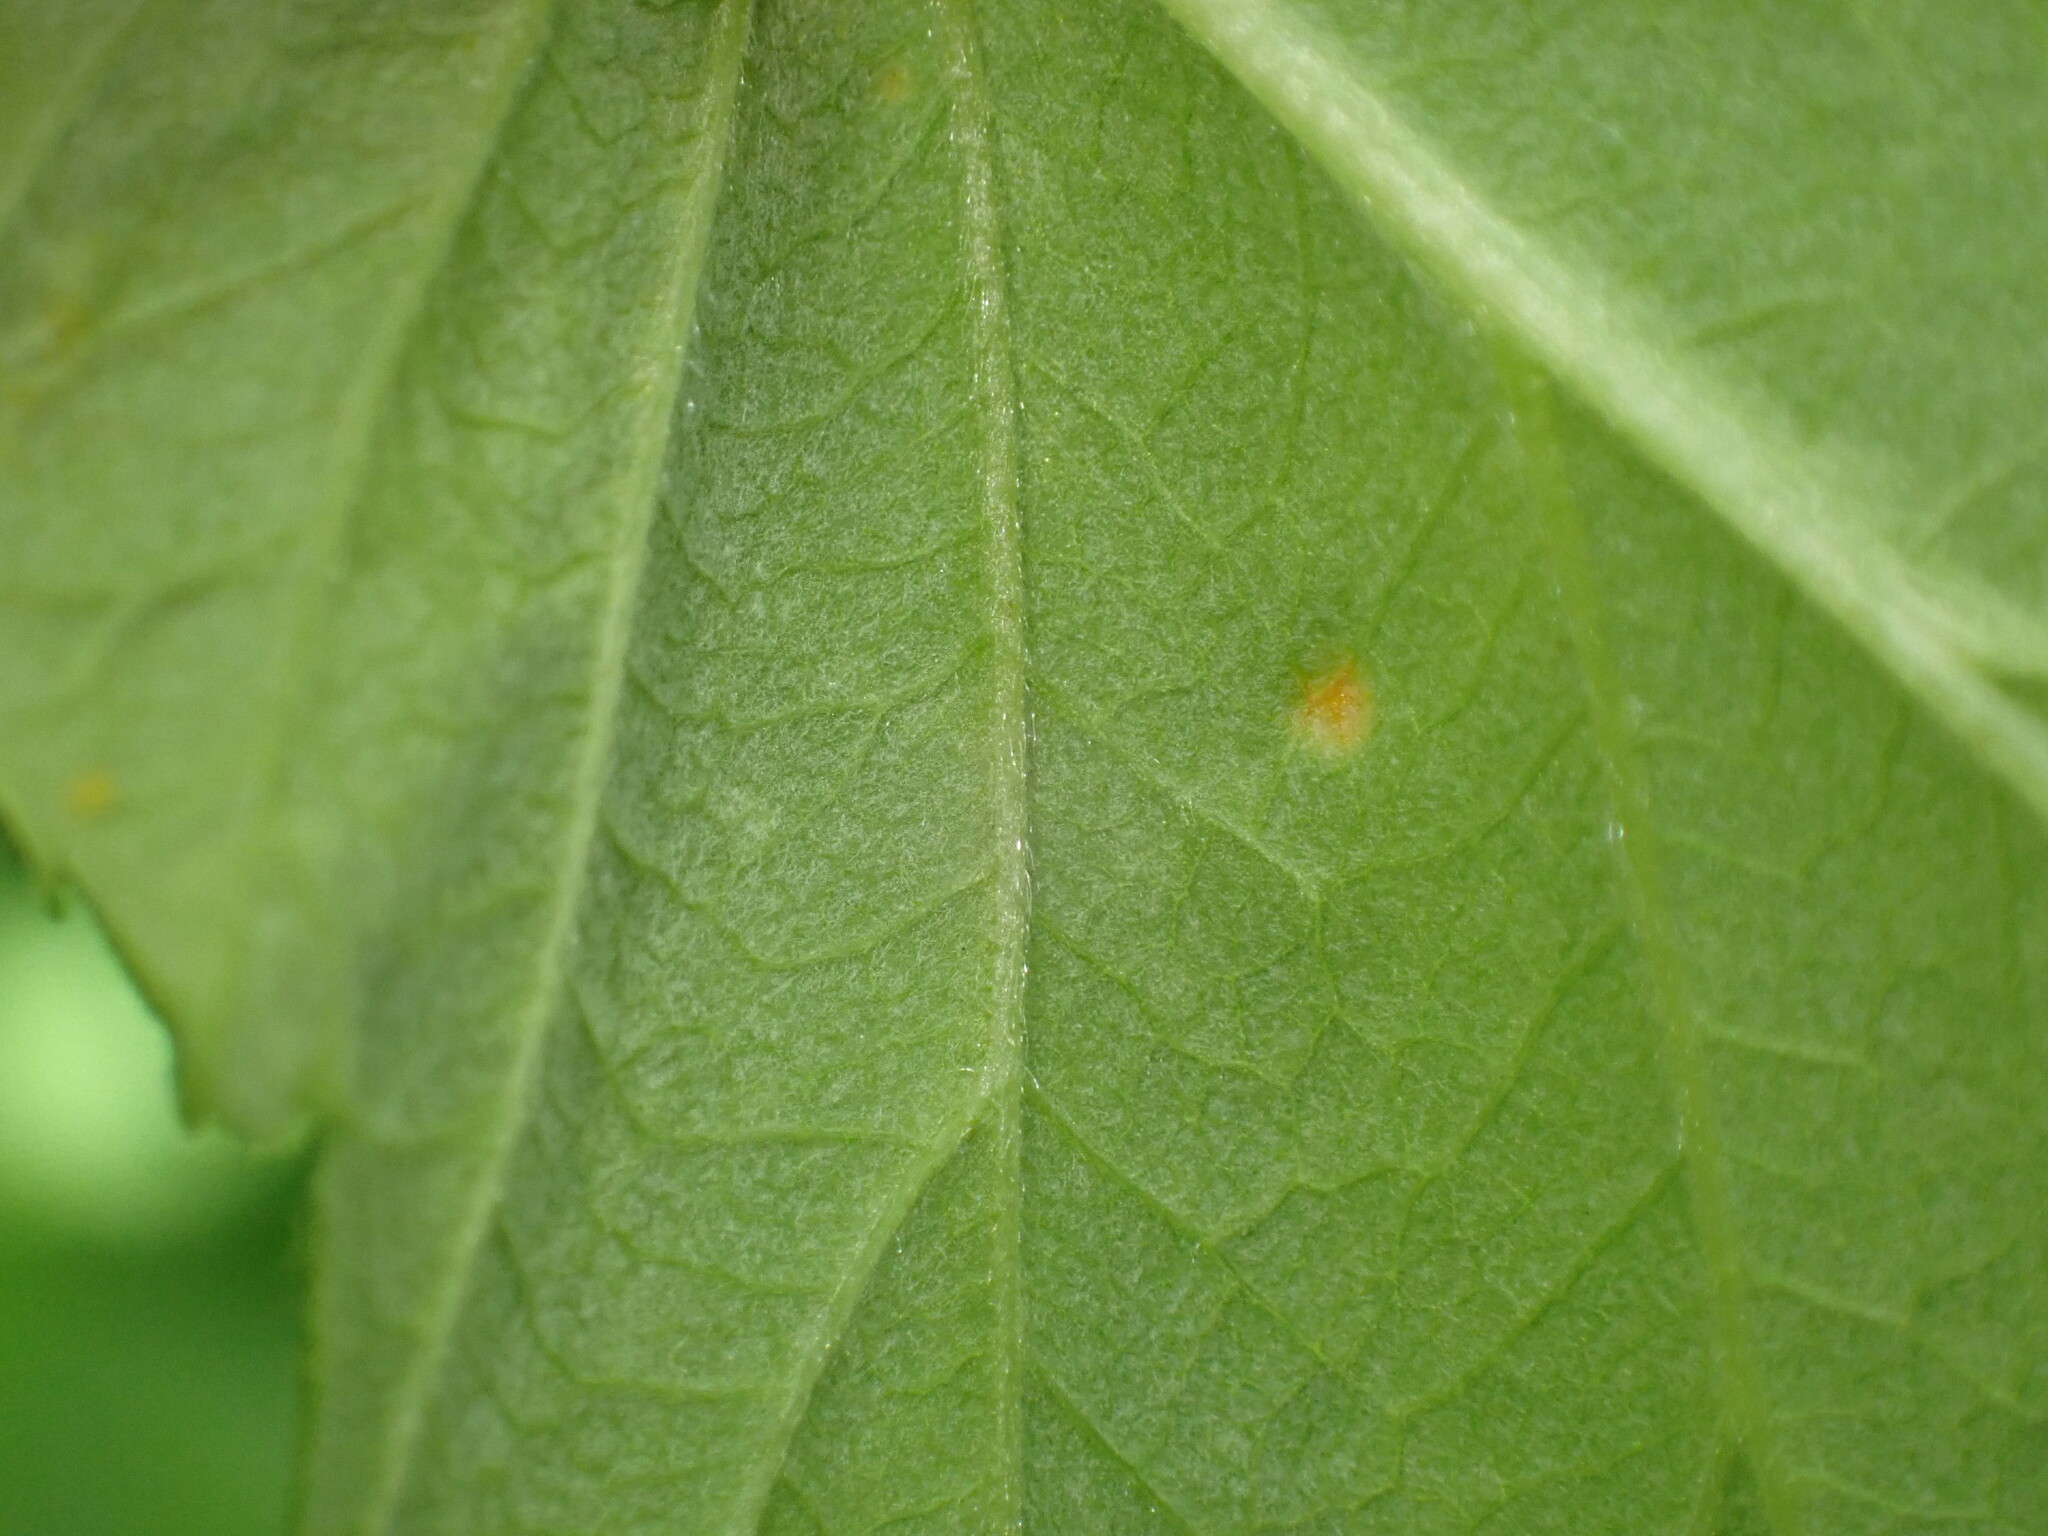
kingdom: Fungi
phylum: Basidiomycota
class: Pucciniomycetes
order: Pucciniales
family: Phragmidiaceae
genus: Phragmidium
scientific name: Phragmidium rubi-idaei
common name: Raspberry rust
